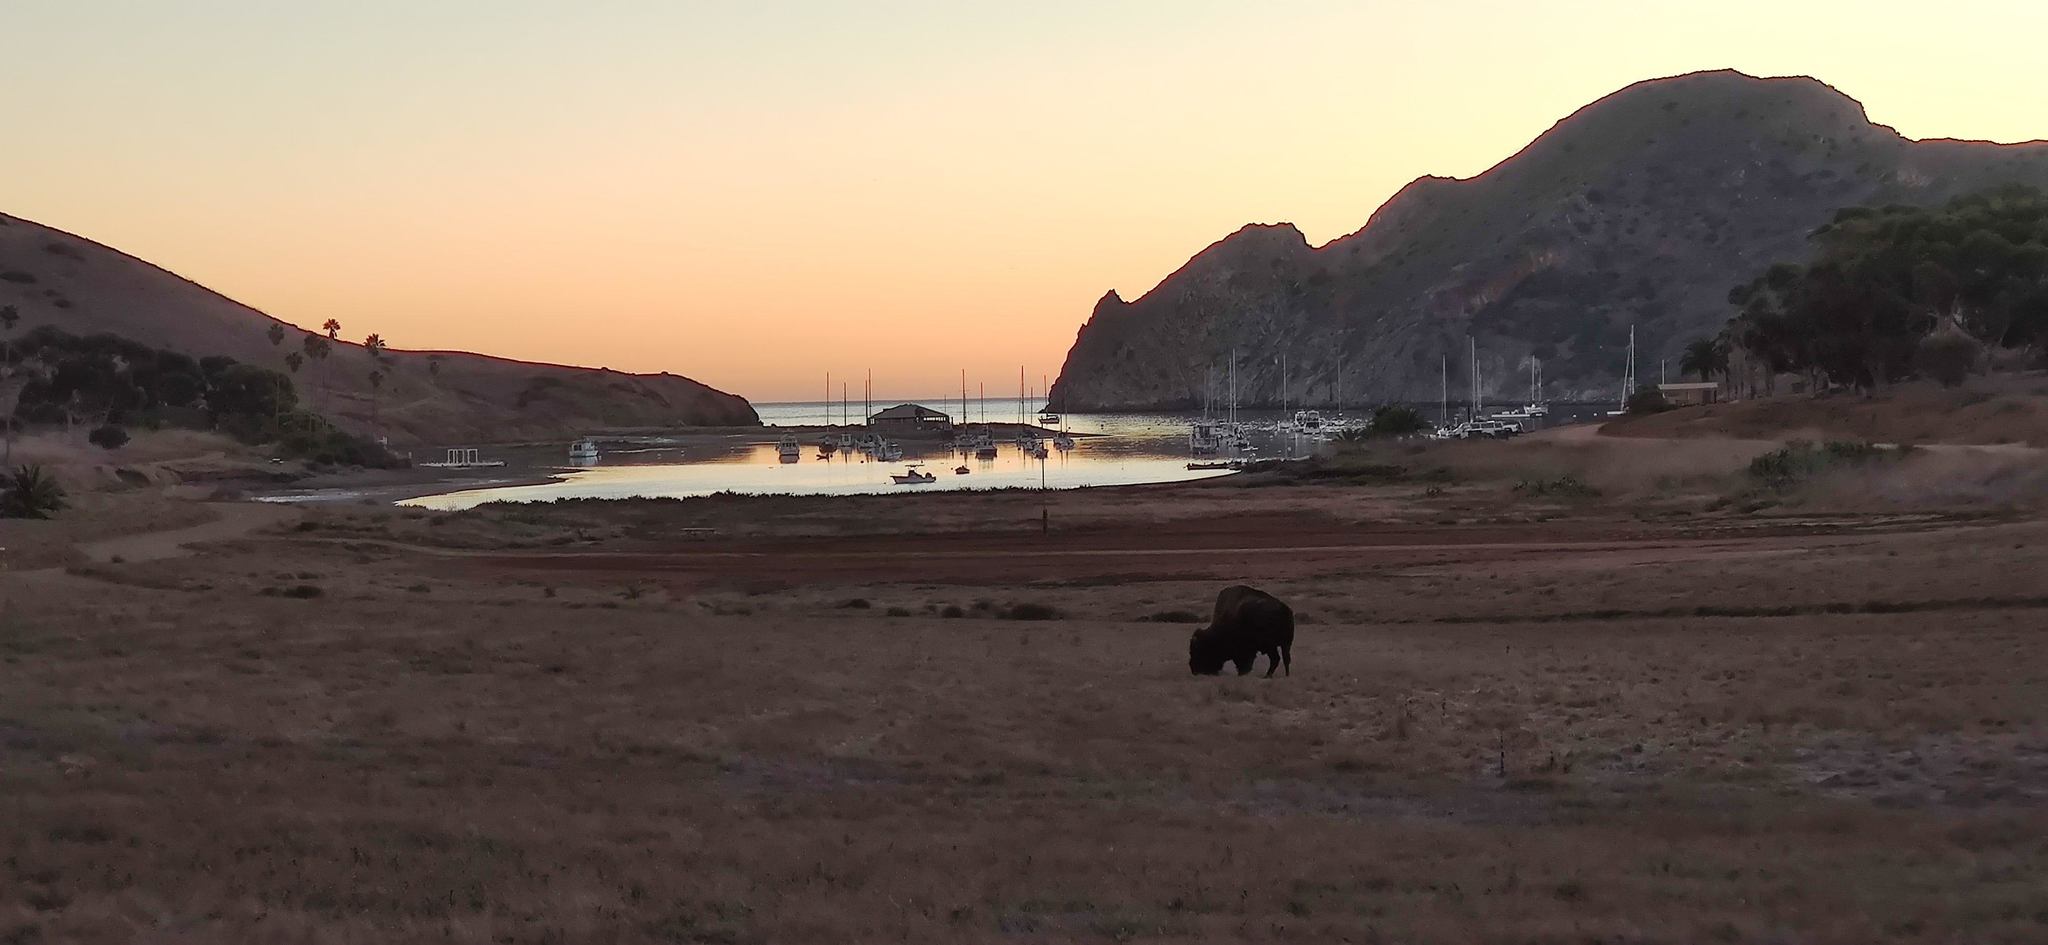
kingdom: Animalia
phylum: Chordata
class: Mammalia
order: Artiodactyla
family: Bovidae
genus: Bison
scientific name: Bison bison
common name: American bison
